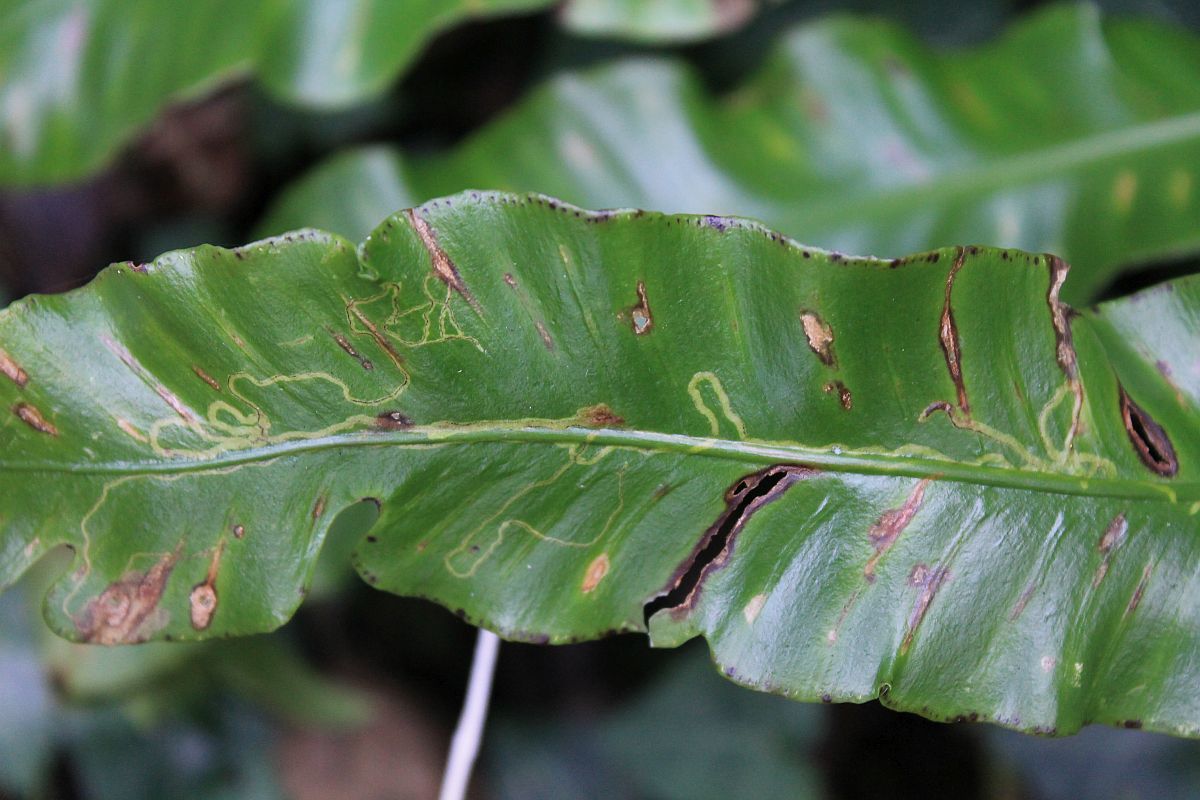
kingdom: Animalia
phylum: Arthropoda
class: Insecta
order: Diptera
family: Agromyzidae
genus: Phytomyza
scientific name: Phytomyza scolopendri
